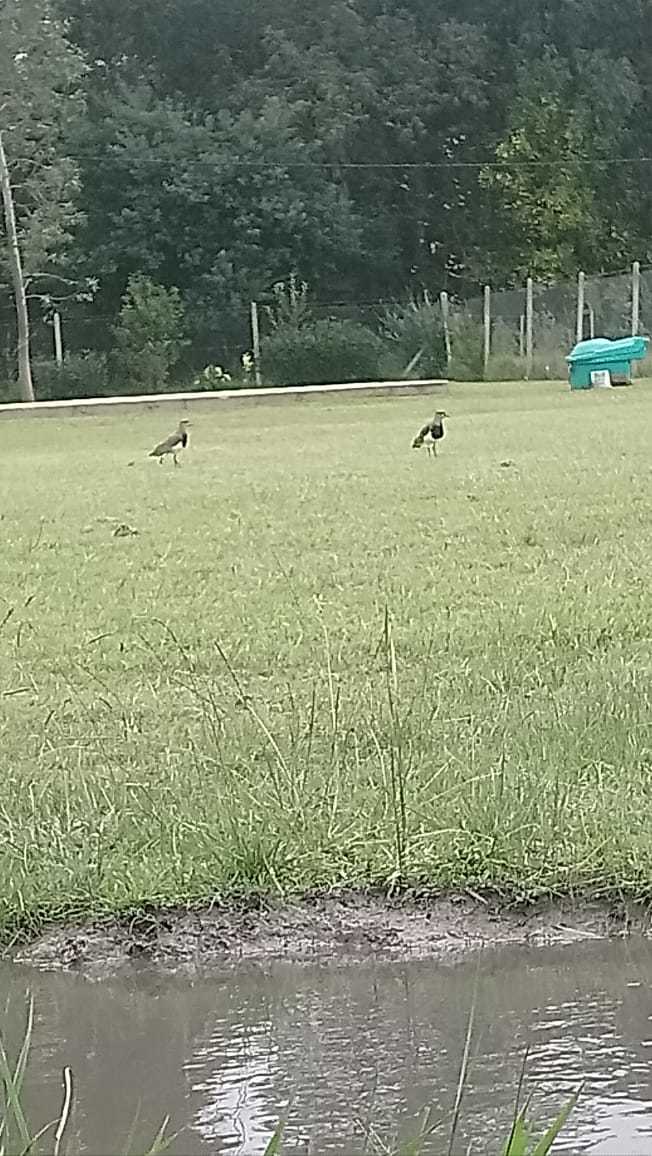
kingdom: Animalia
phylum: Chordata
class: Aves
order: Charadriiformes
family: Charadriidae
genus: Vanellus
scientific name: Vanellus chilensis
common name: Southern lapwing
